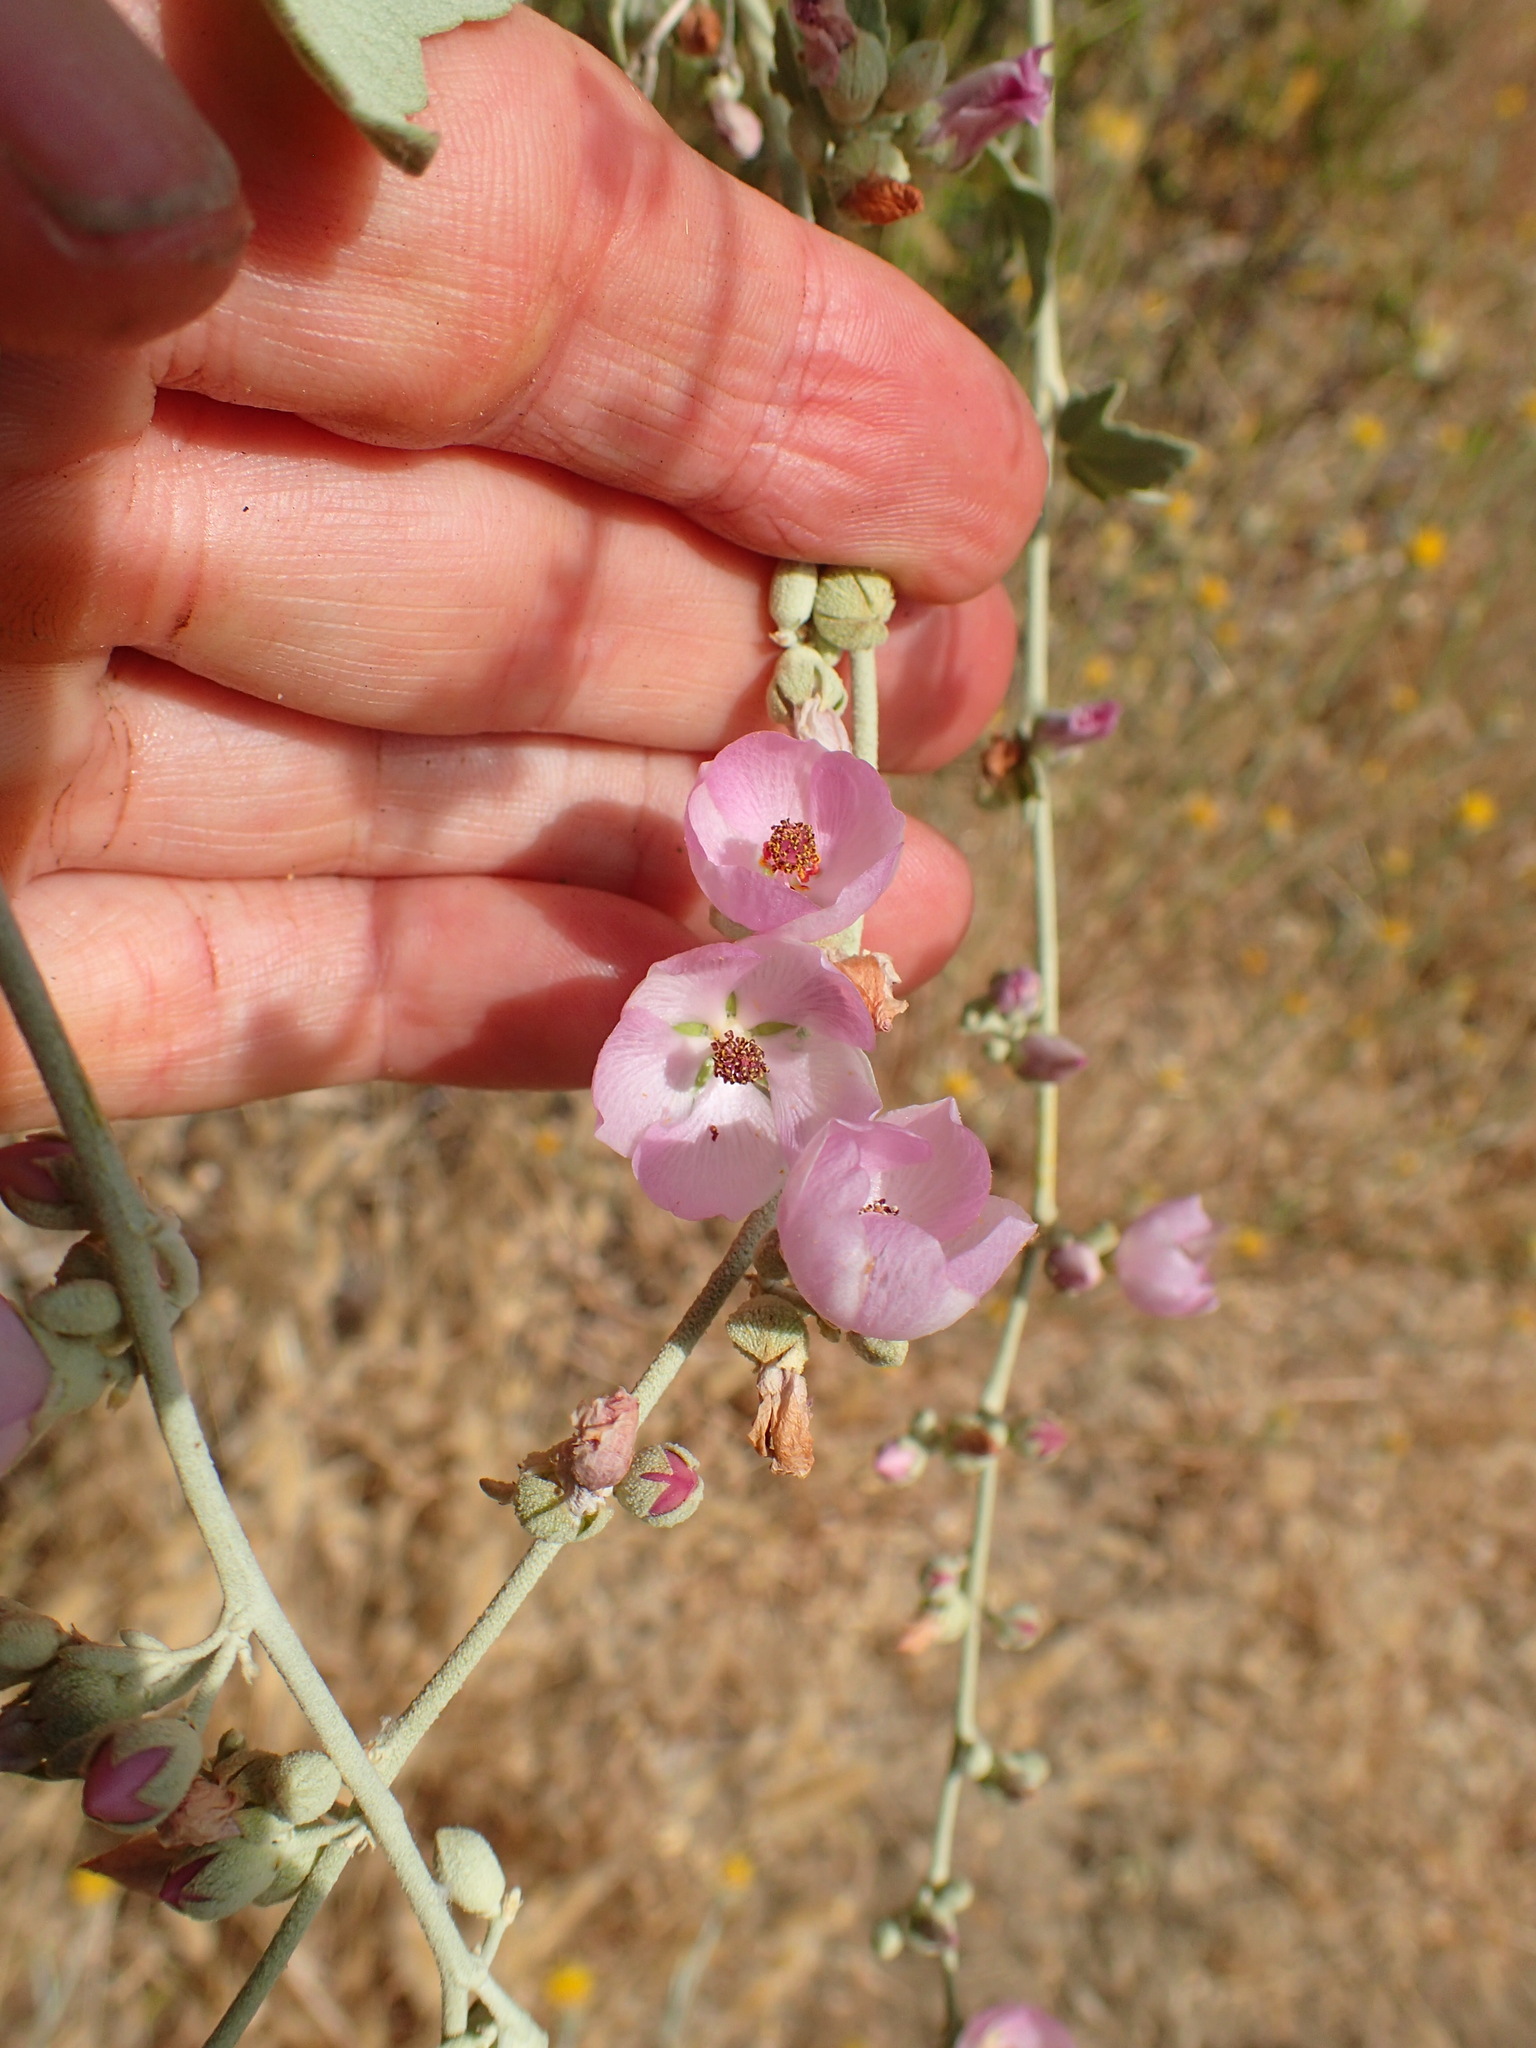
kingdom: Plantae
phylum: Tracheophyta
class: Magnoliopsida
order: Malvales
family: Malvaceae
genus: Malacothamnus
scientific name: Malacothamnus fasciculatus
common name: Sant cruz island bush-mallow
